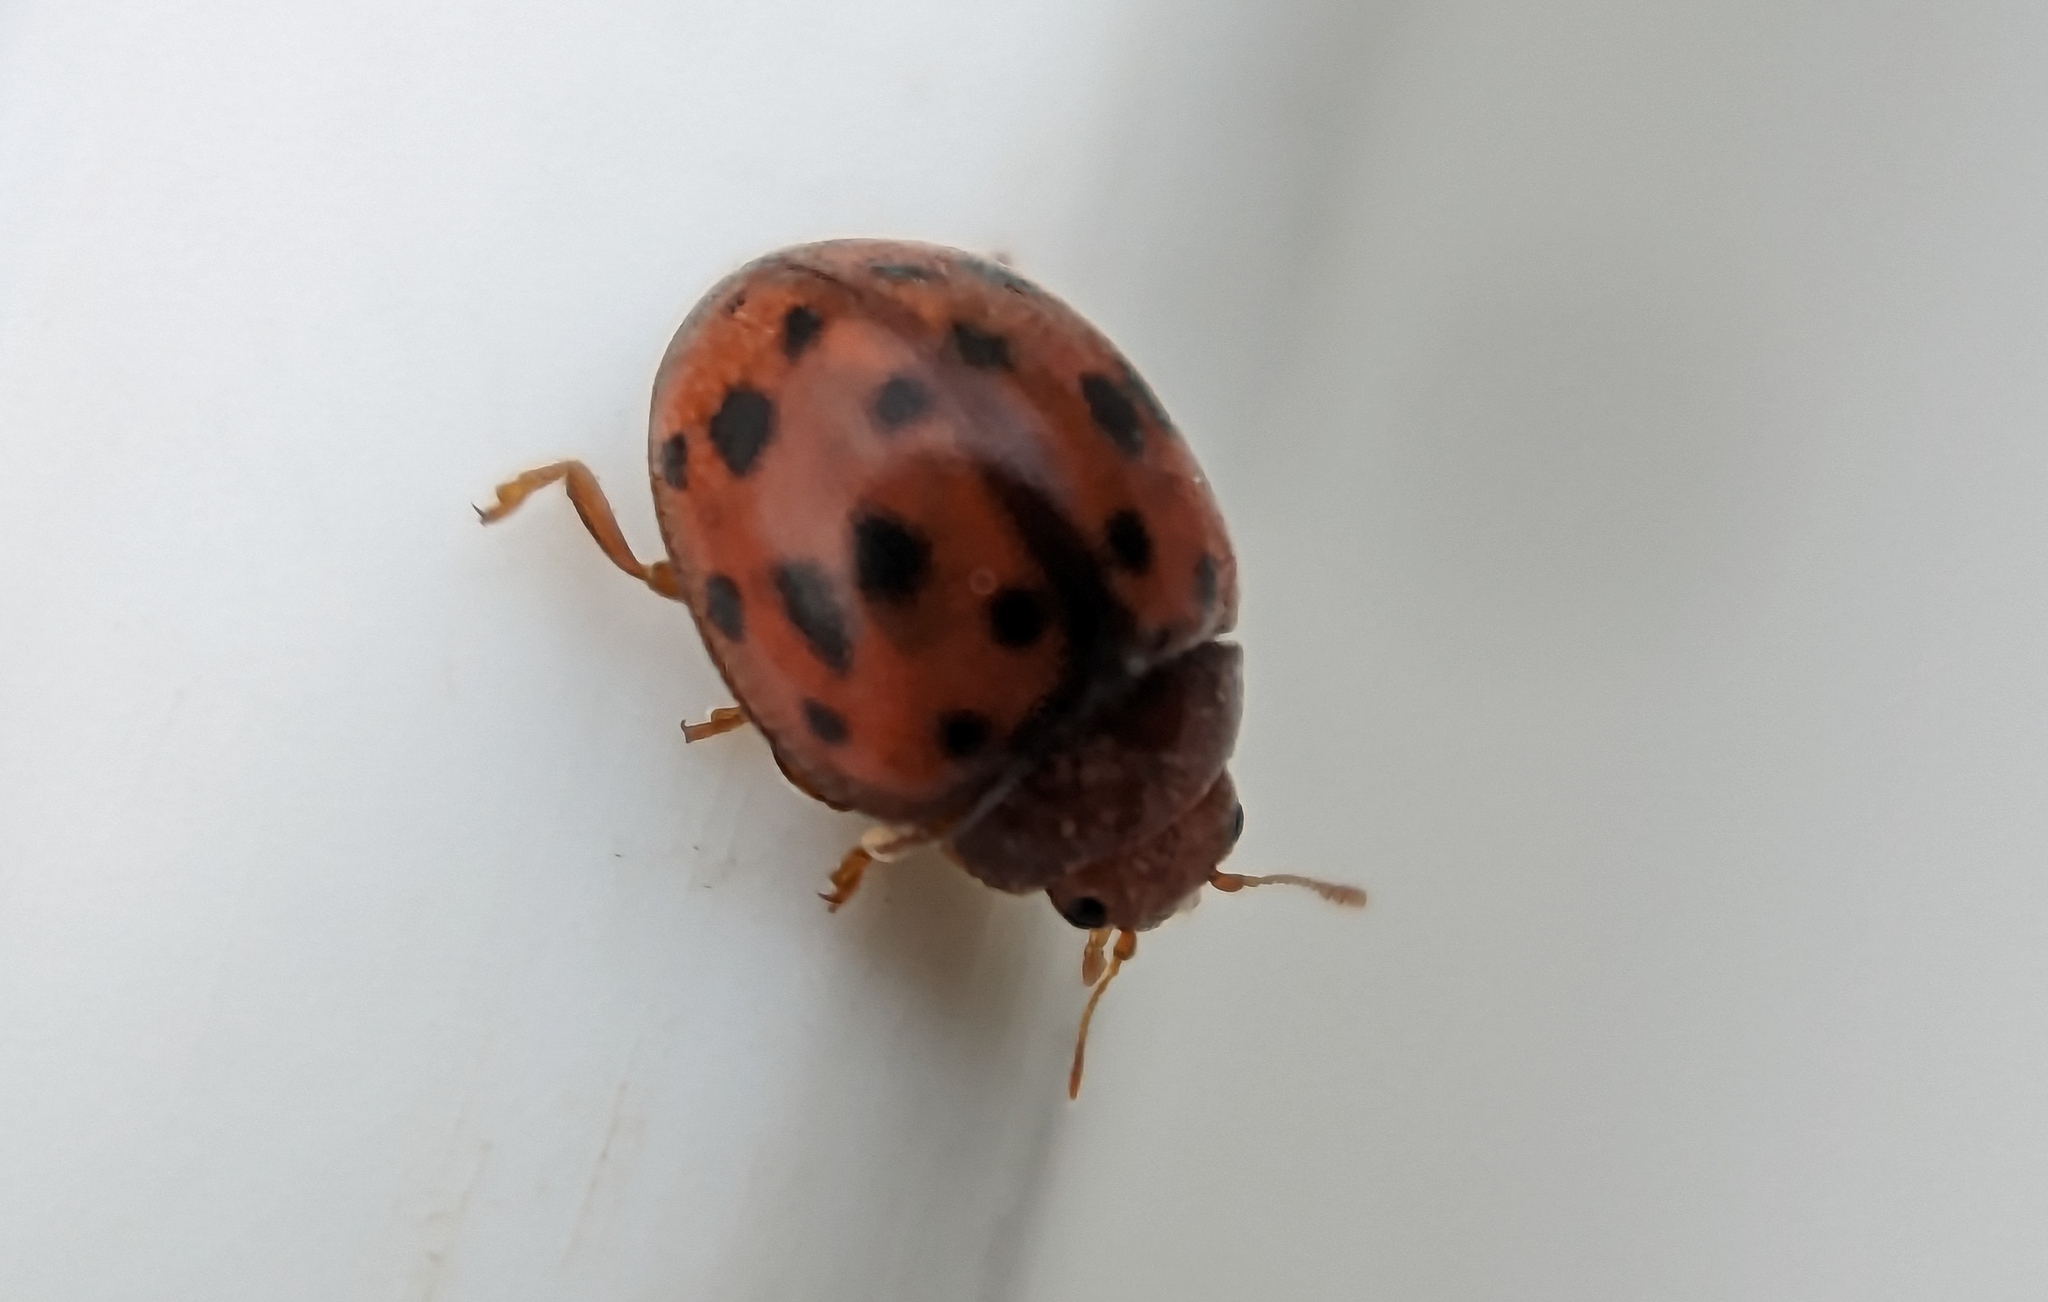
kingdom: Animalia
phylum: Arthropoda
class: Insecta
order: Coleoptera
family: Coccinellidae
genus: Subcoccinella
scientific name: Subcoccinella vigintiquatuorpunctata
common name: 24-spot ladybird
